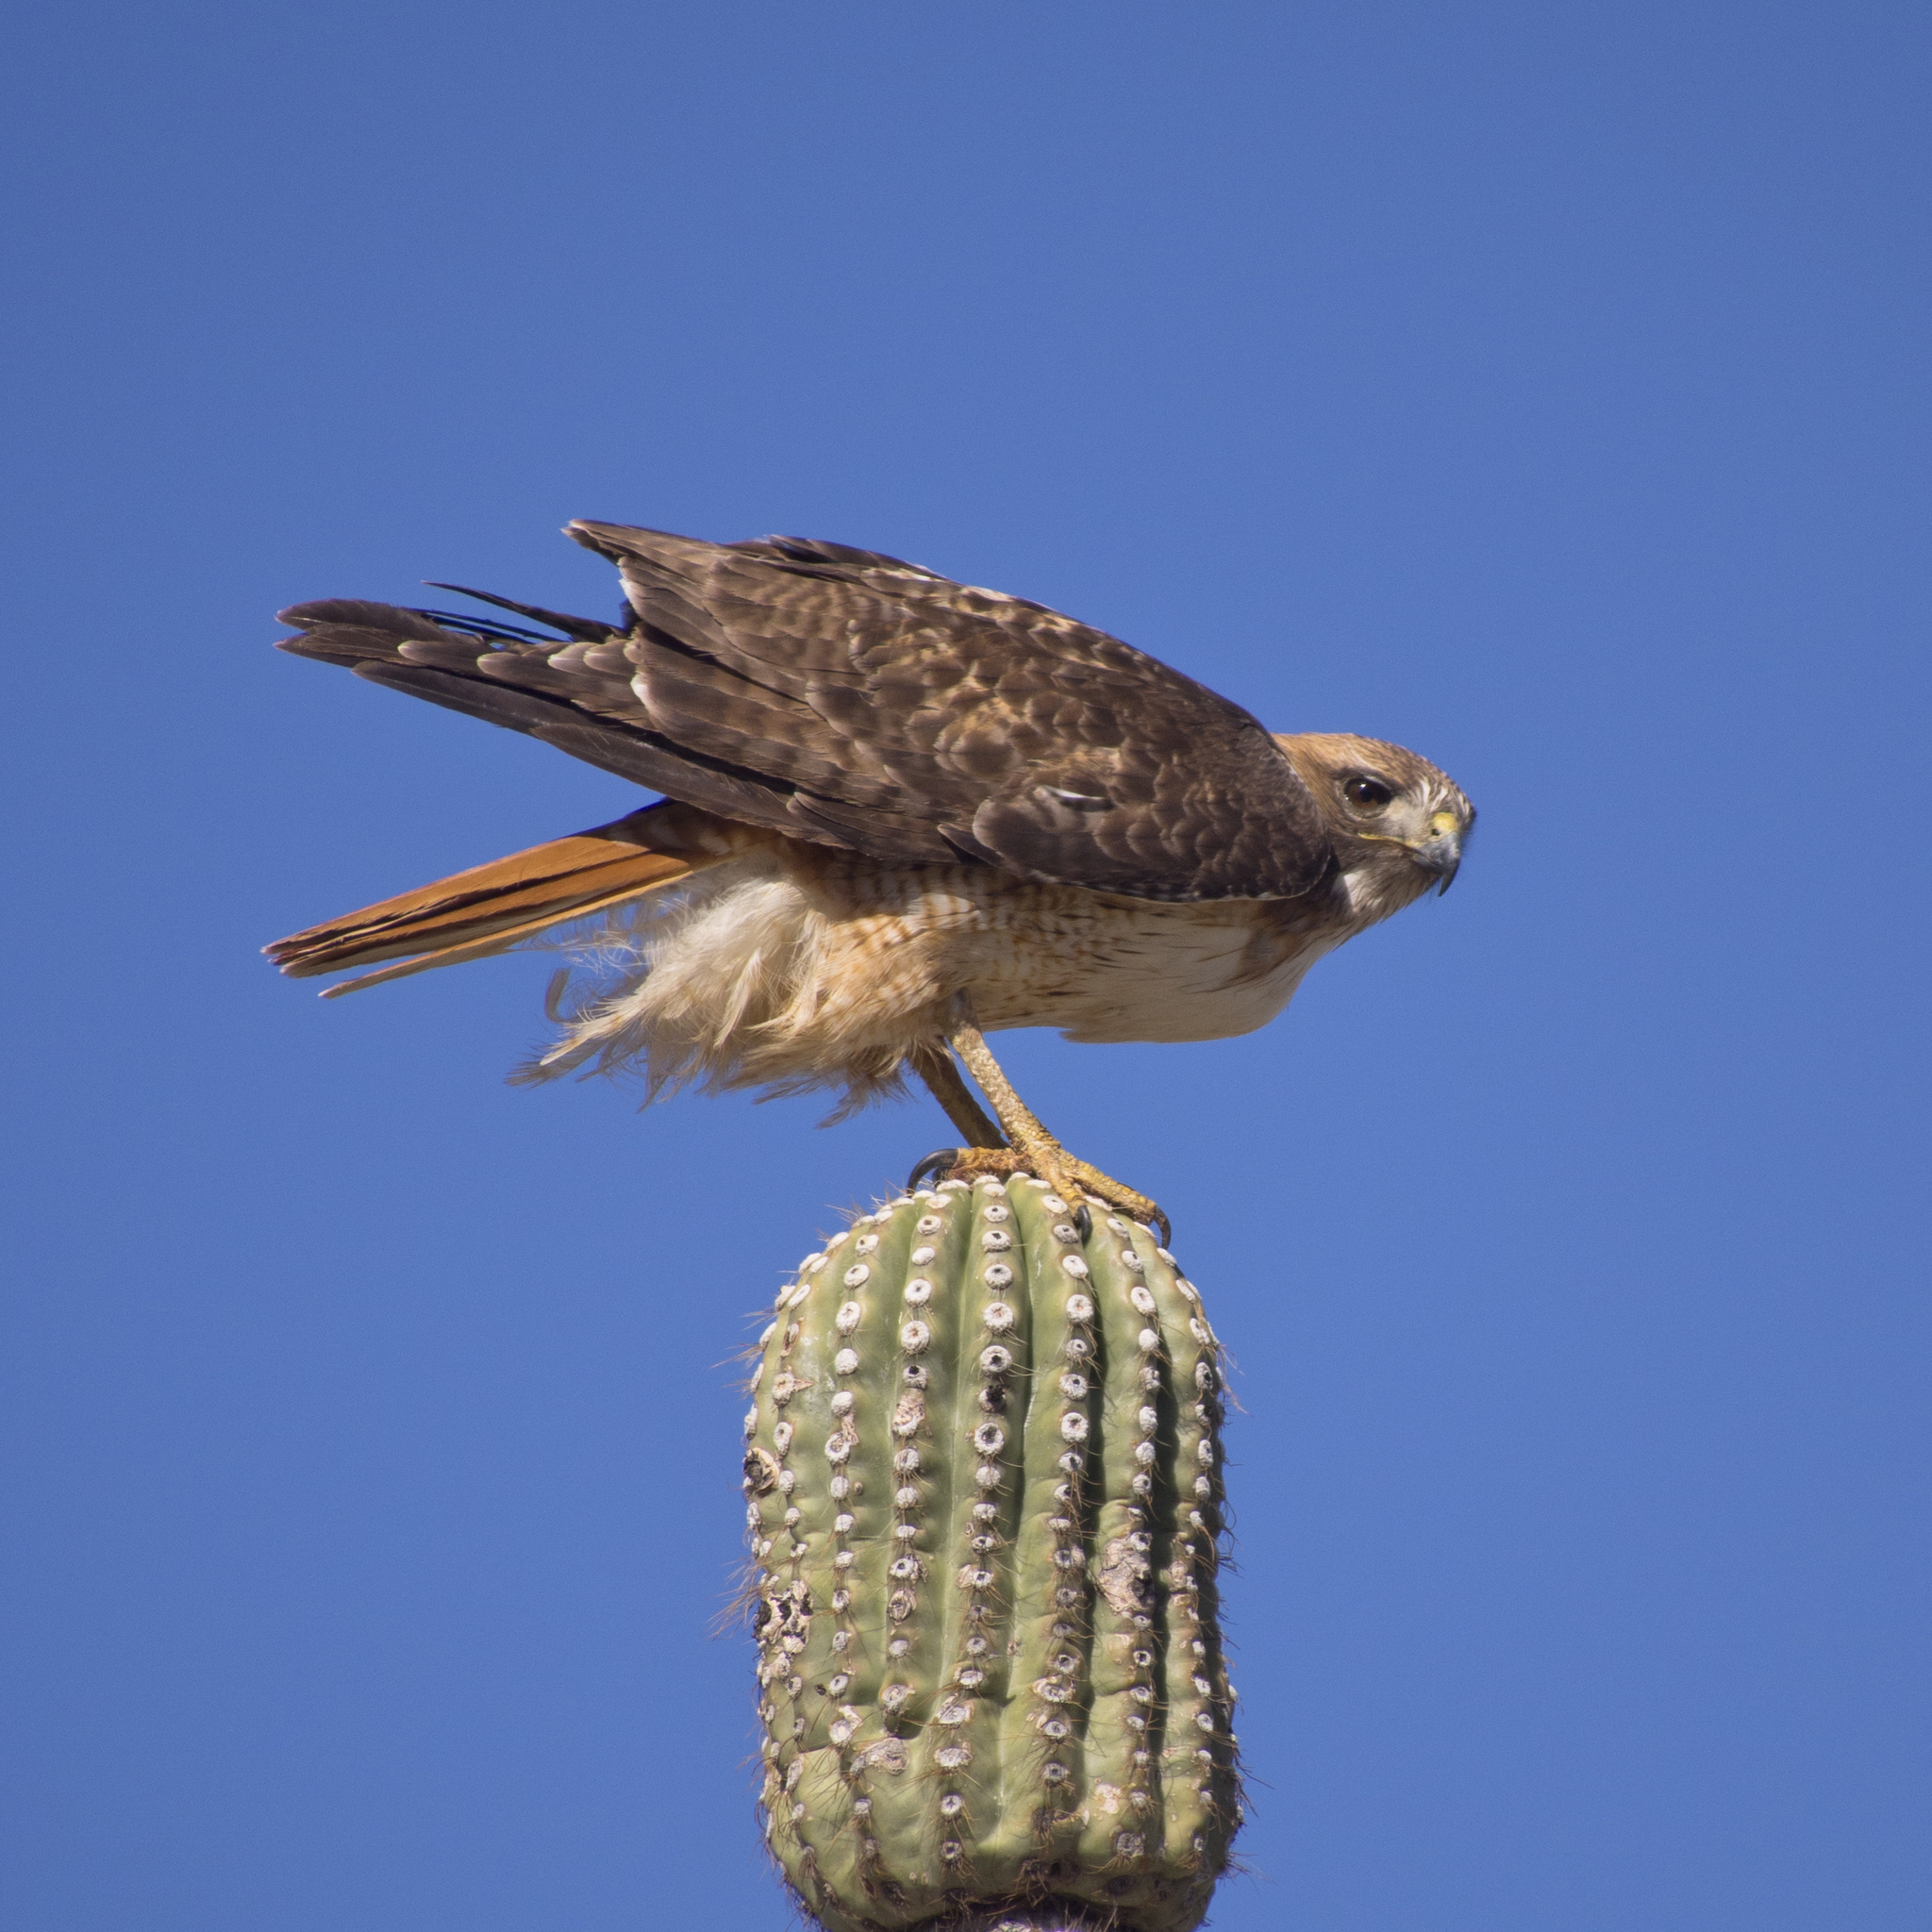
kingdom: Animalia
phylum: Chordata
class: Aves
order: Accipitriformes
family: Accipitridae
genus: Buteo
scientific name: Buteo jamaicensis
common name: Red-tailed hawk
